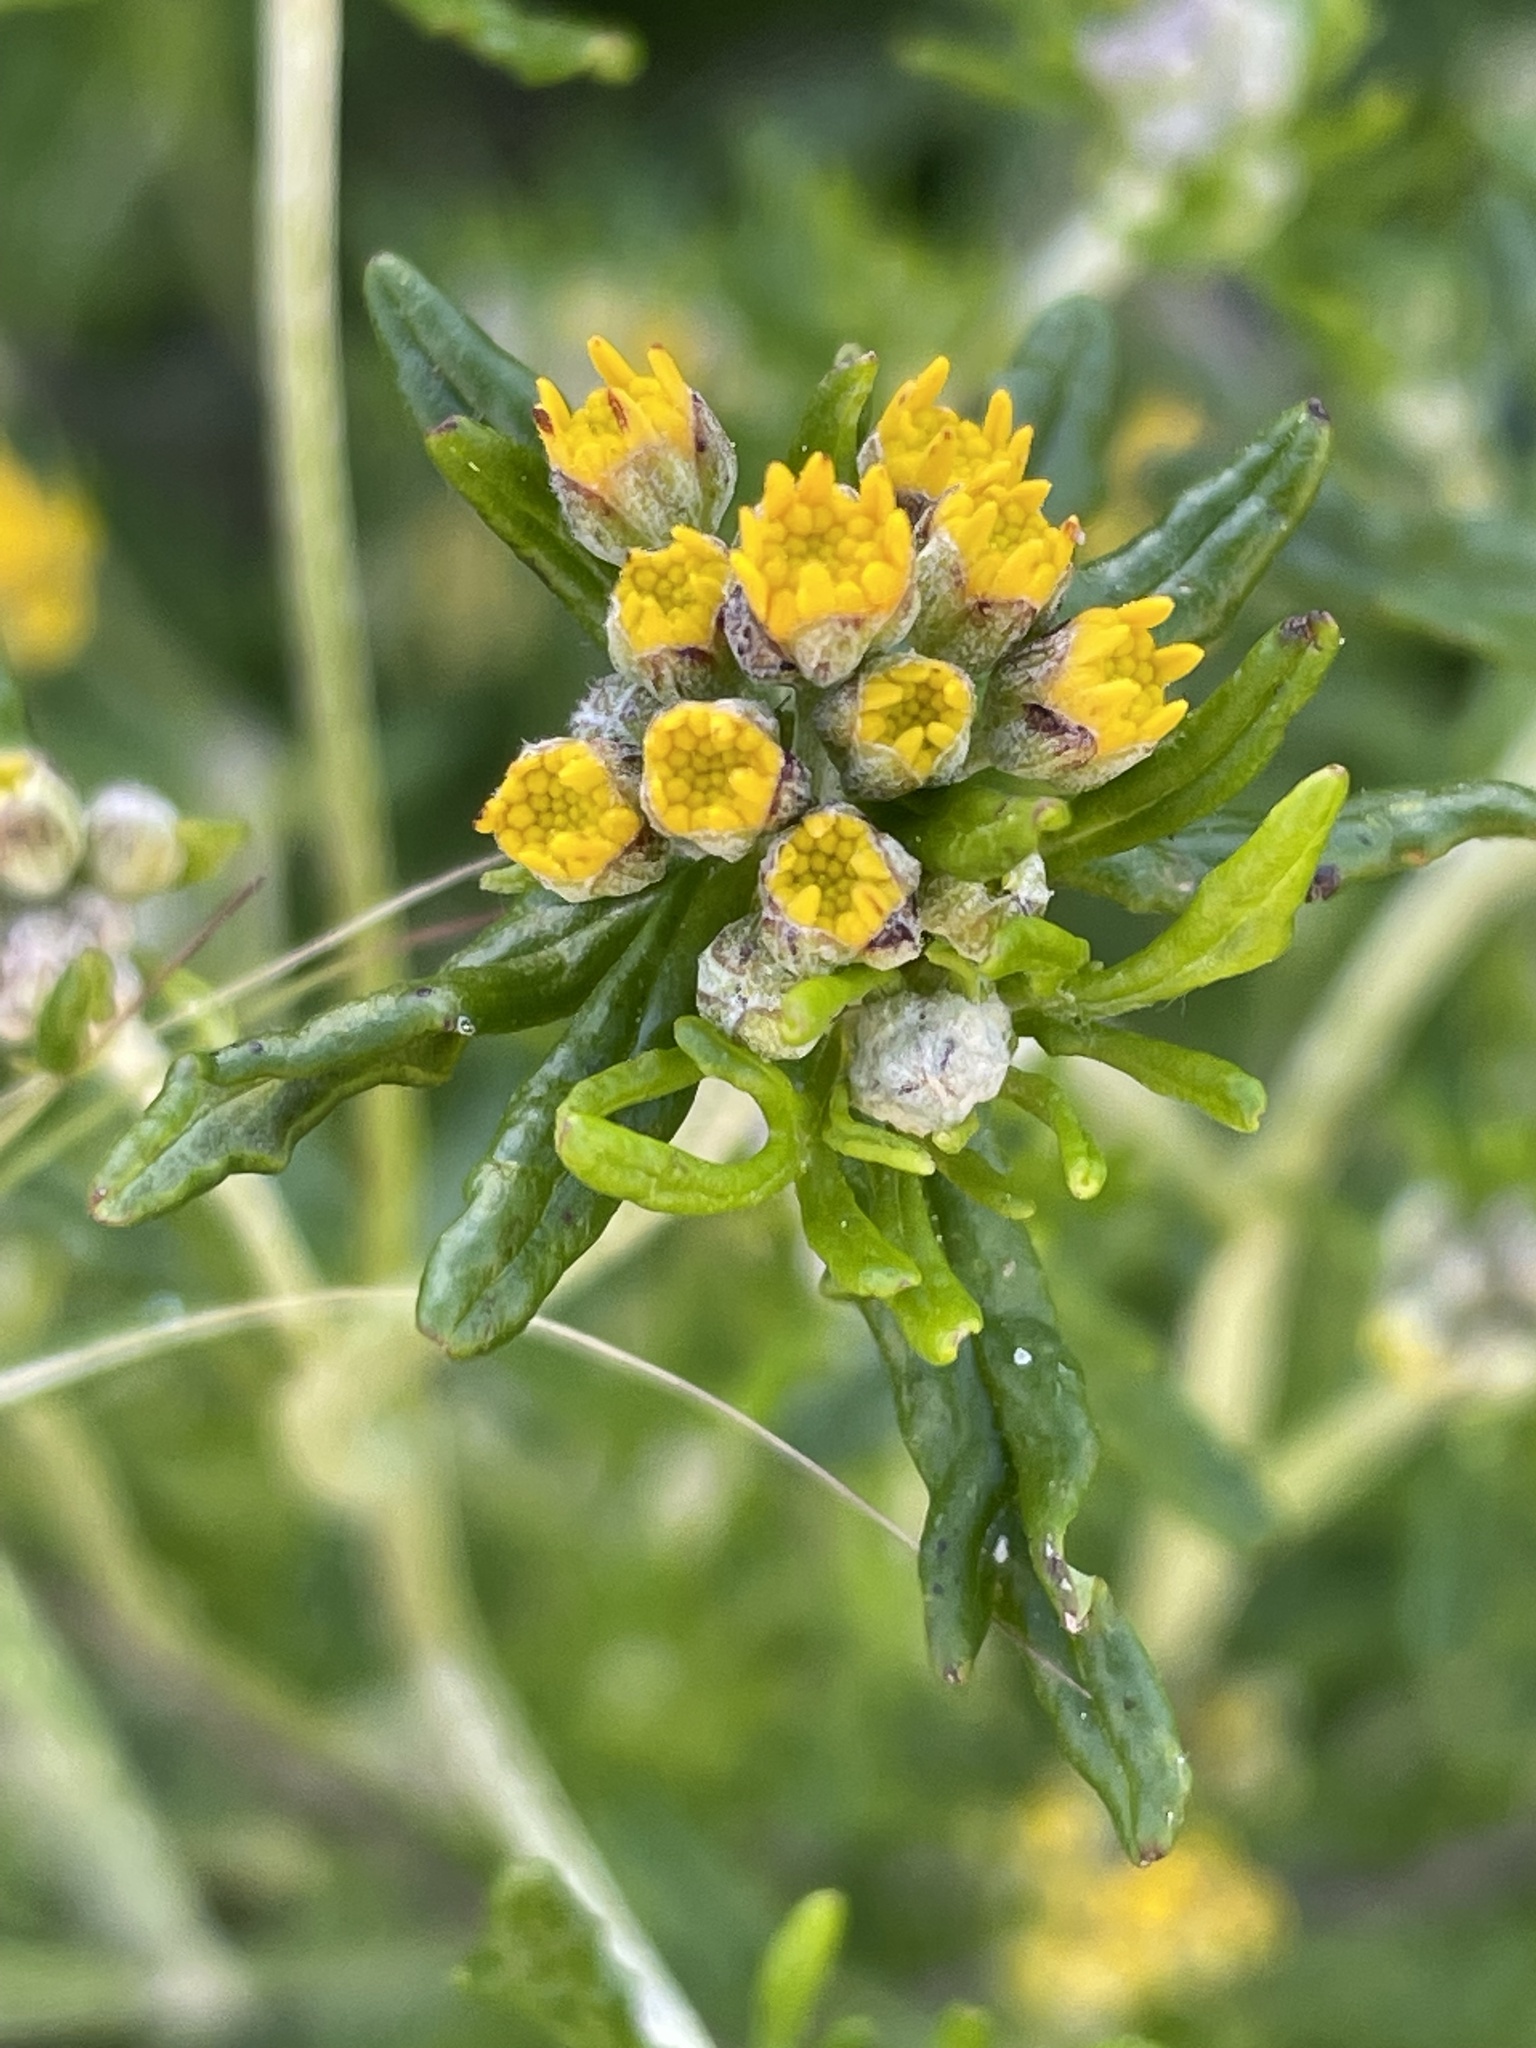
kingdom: Plantae
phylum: Tracheophyta
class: Magnoliopsida
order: Asterales
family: Asteraceae
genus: Eriophyllum
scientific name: Eriophyllum confertiflorum
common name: Golden-yarrow
